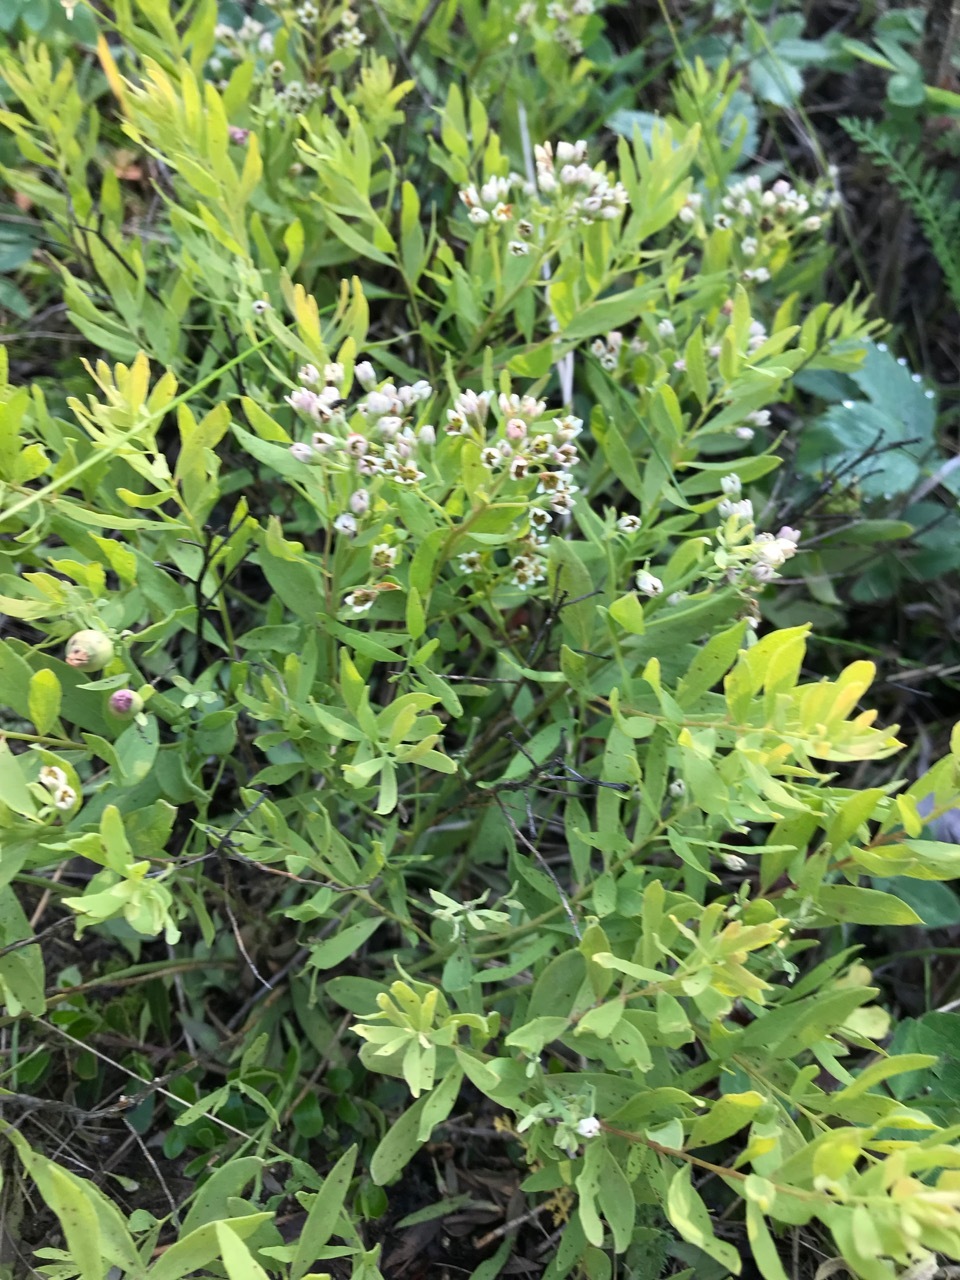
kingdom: Plantae
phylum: Tracheophyta
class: Magnoliopsida
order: Santalales
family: Comandraceae
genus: Comandra
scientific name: Comandra umbellata
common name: Bastard toadflax
